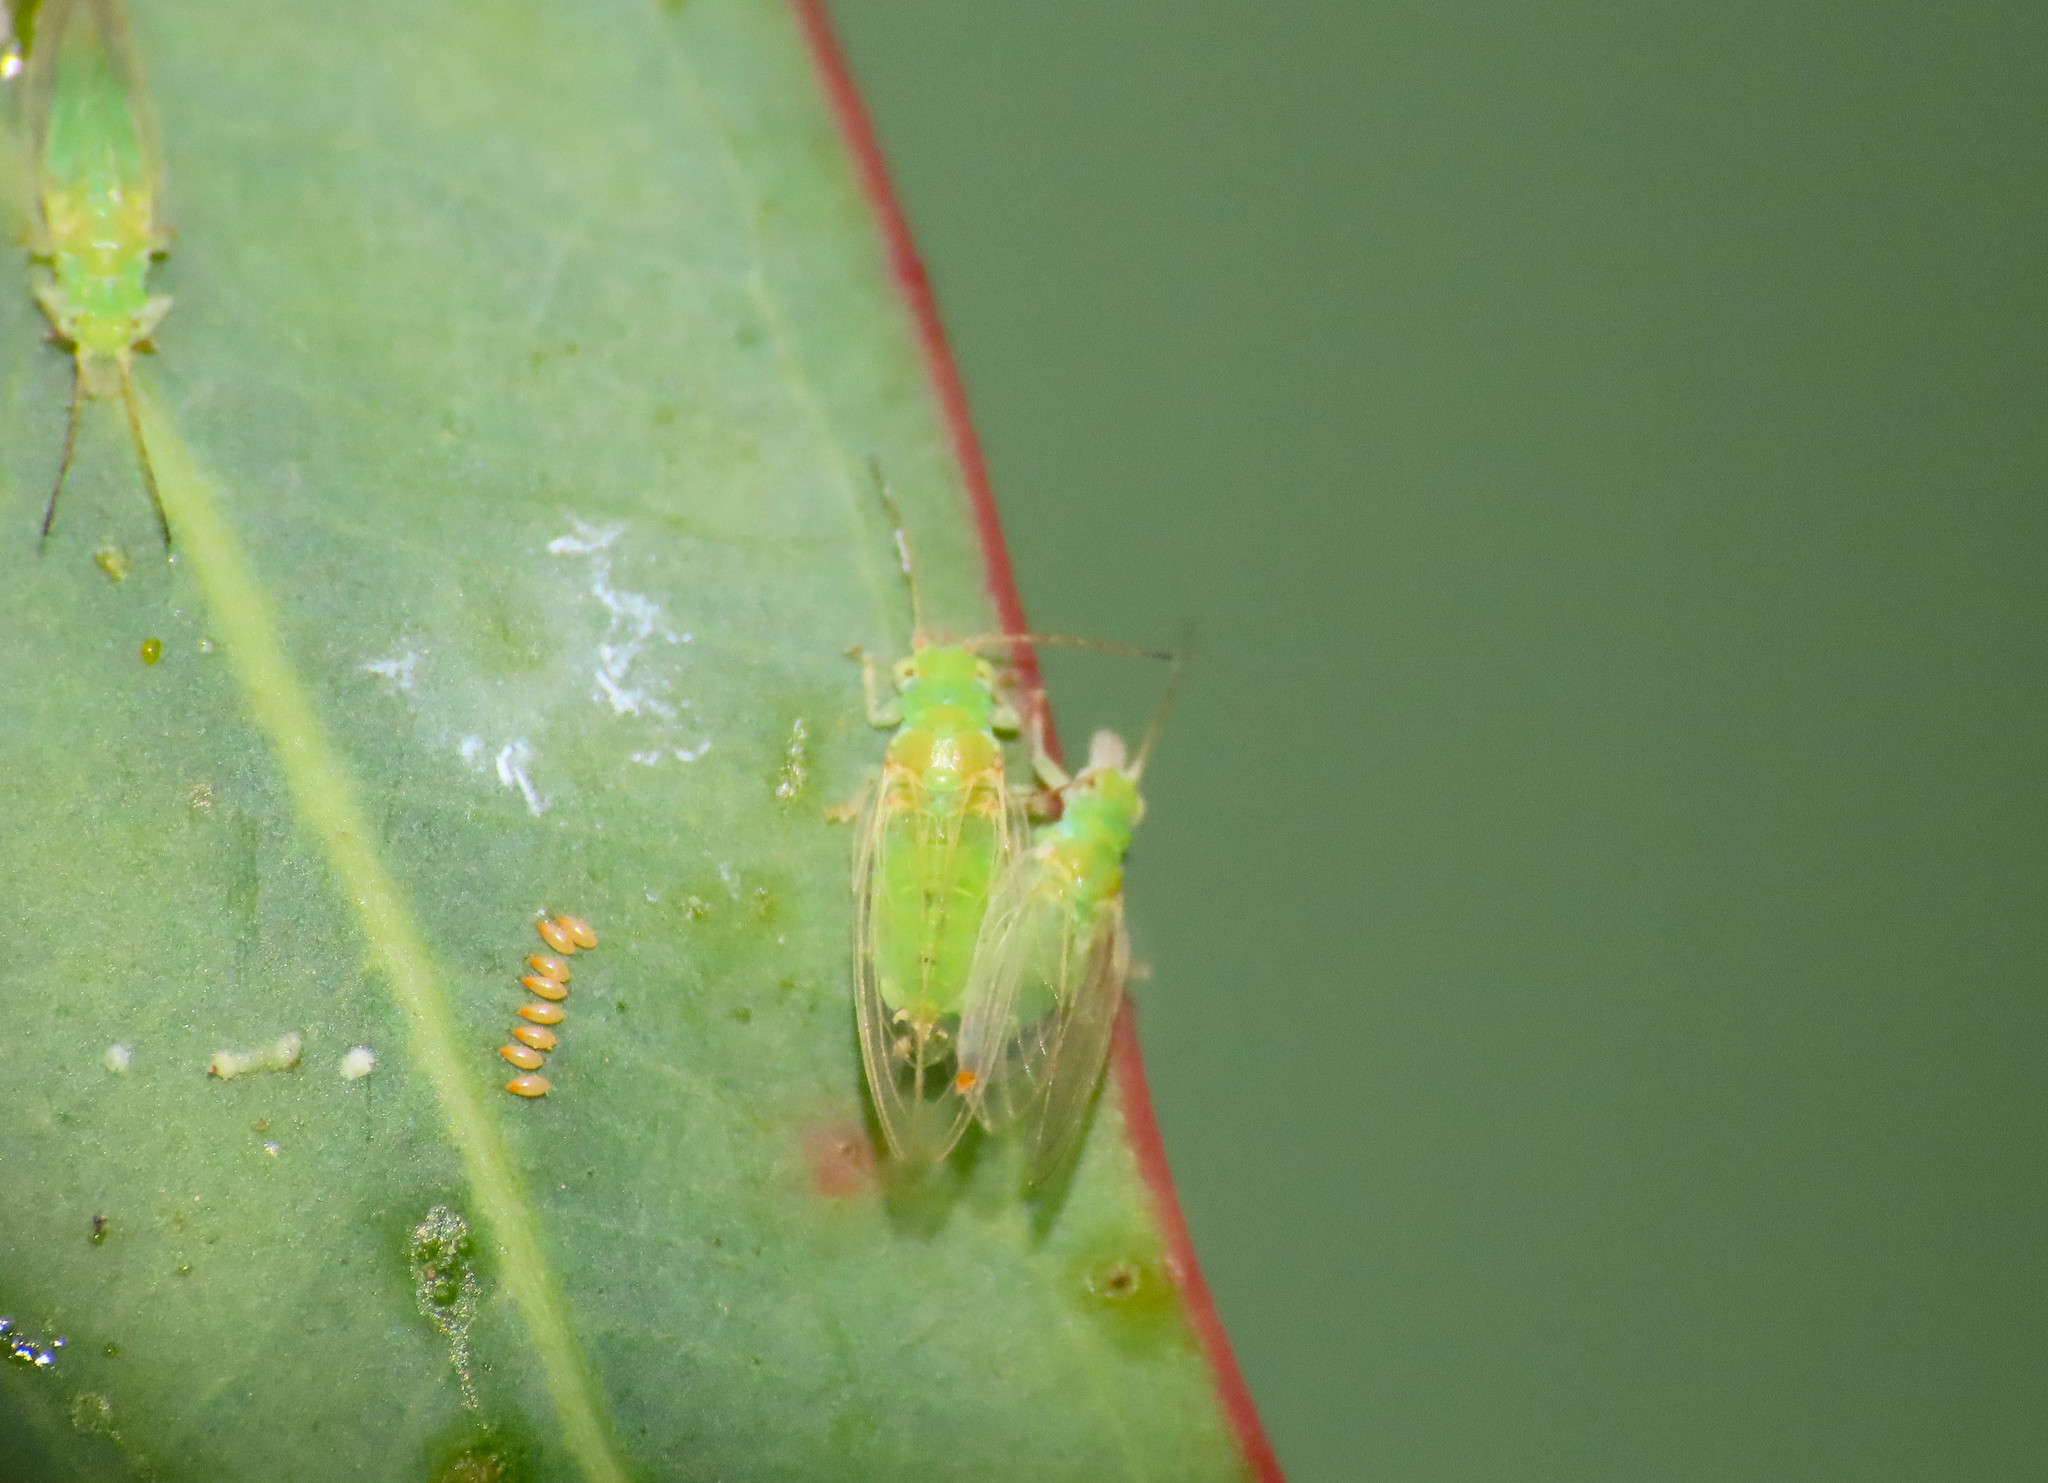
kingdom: Animalia
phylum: Arthropoda
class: Insecta
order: Hemiptera
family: Aphalaridae
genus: Glycaspis
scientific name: Glycaspis brimblecombei
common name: Red gum lerp psyllid
